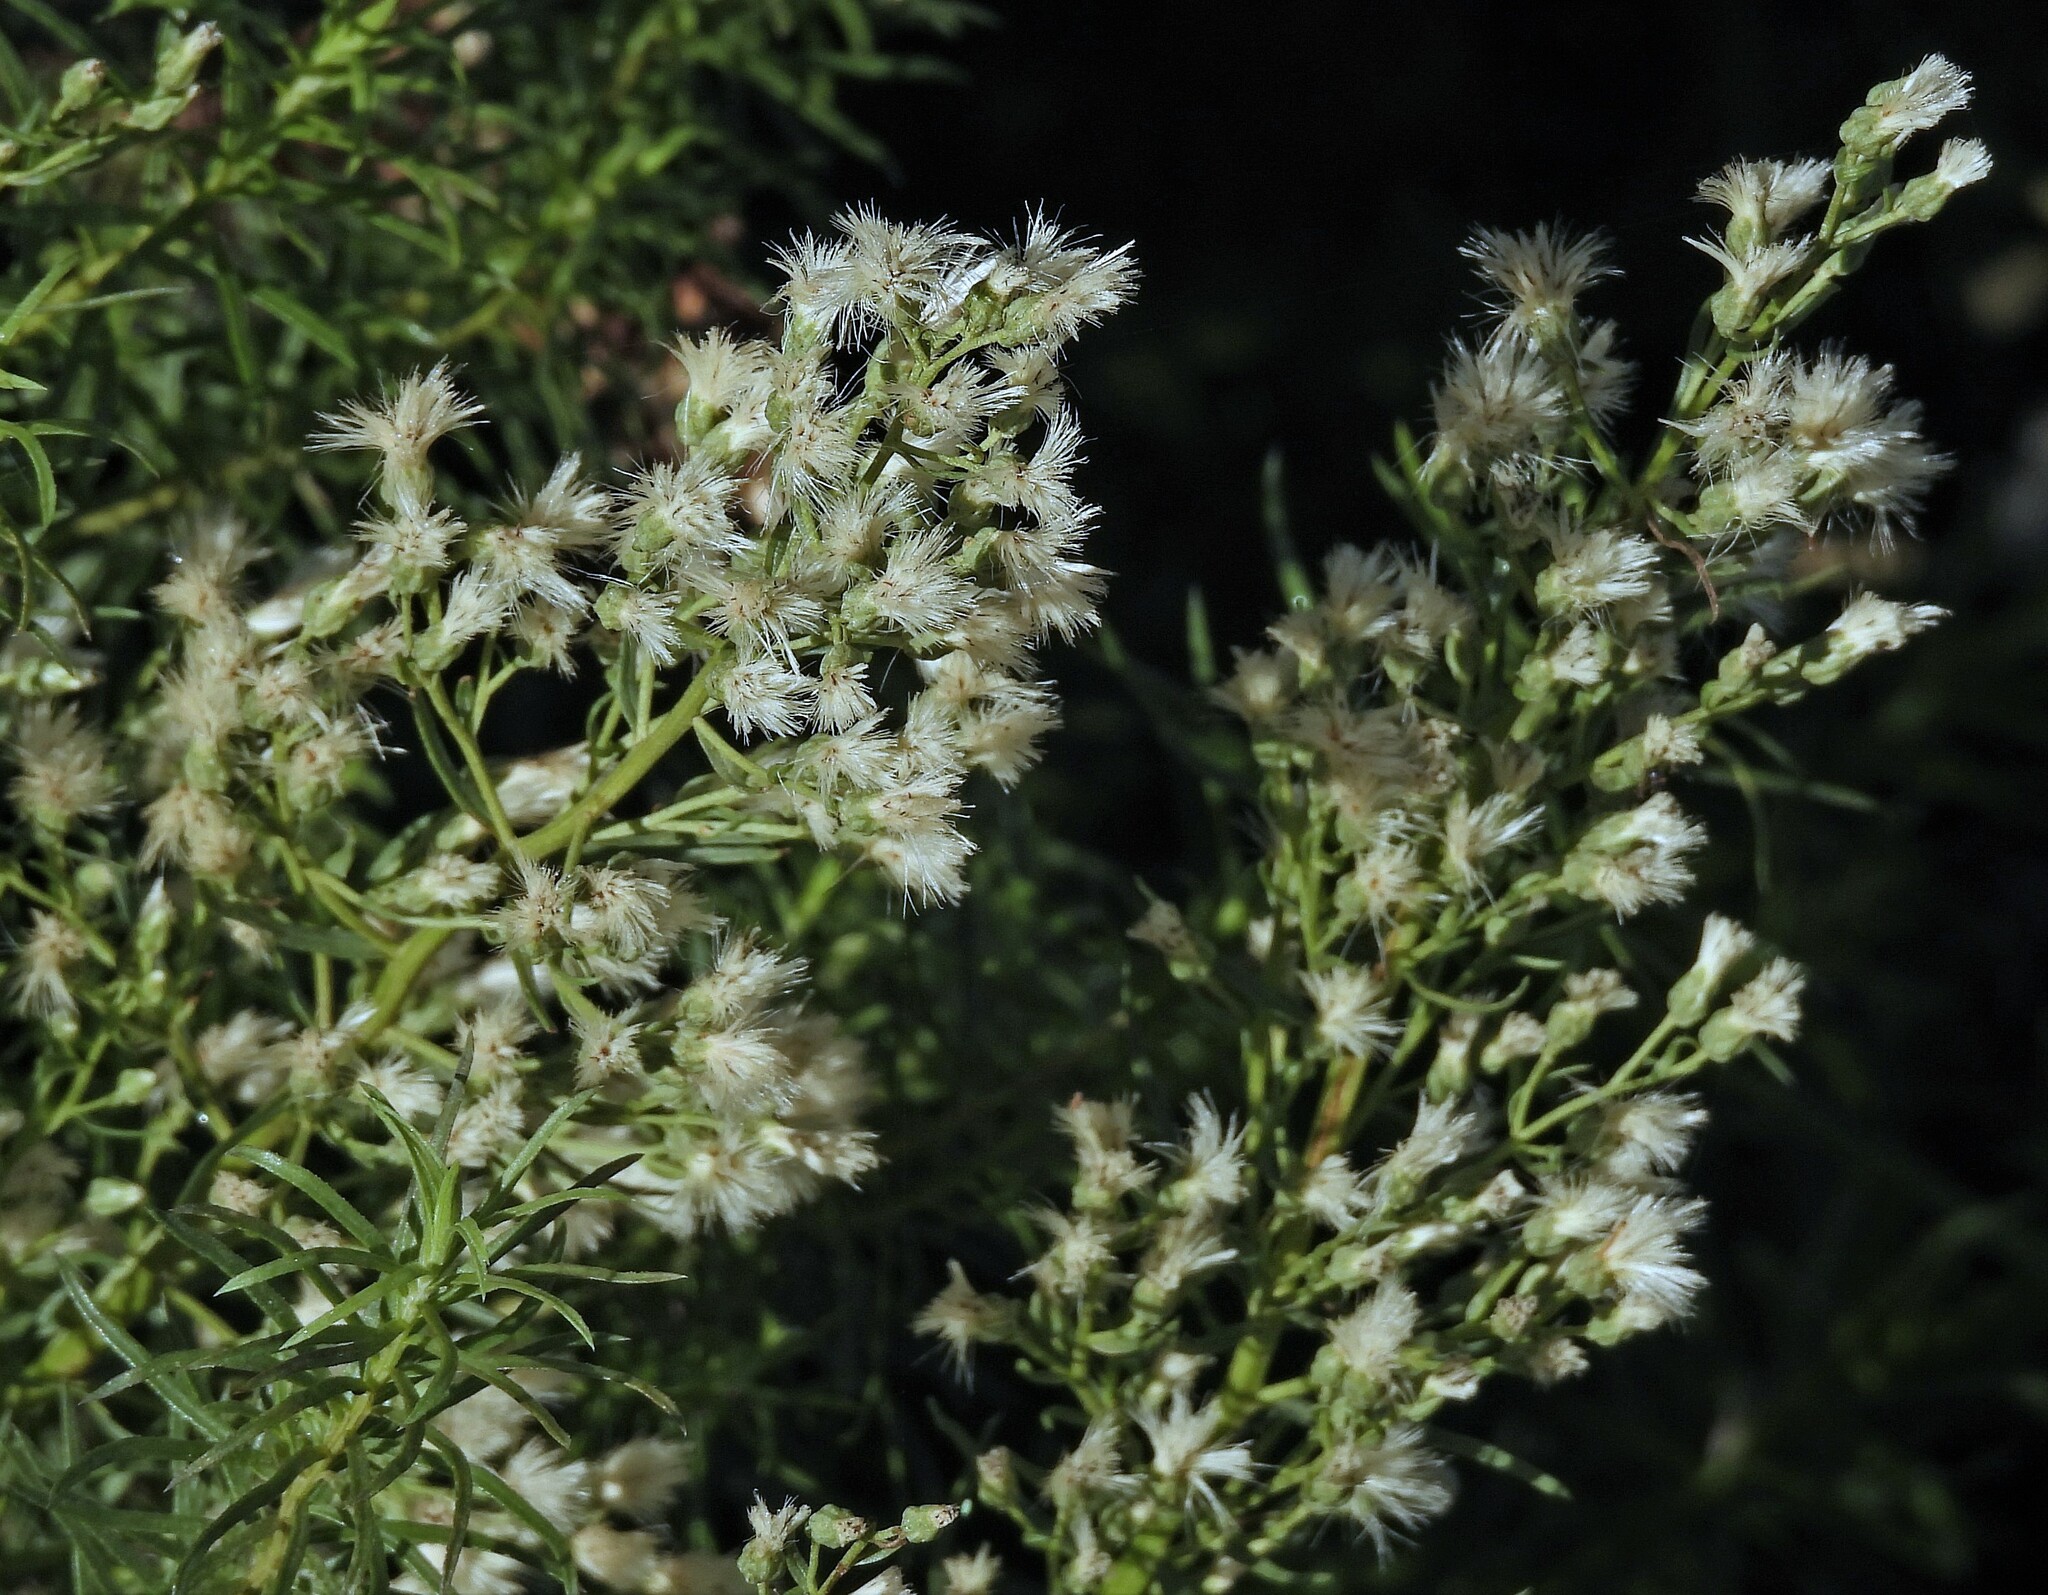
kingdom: Plantae
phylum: Tracheophyta
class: Magnoliopsida
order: Asterales
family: Asteraceae
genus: Baccharis
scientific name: Baccharis coridifolia
